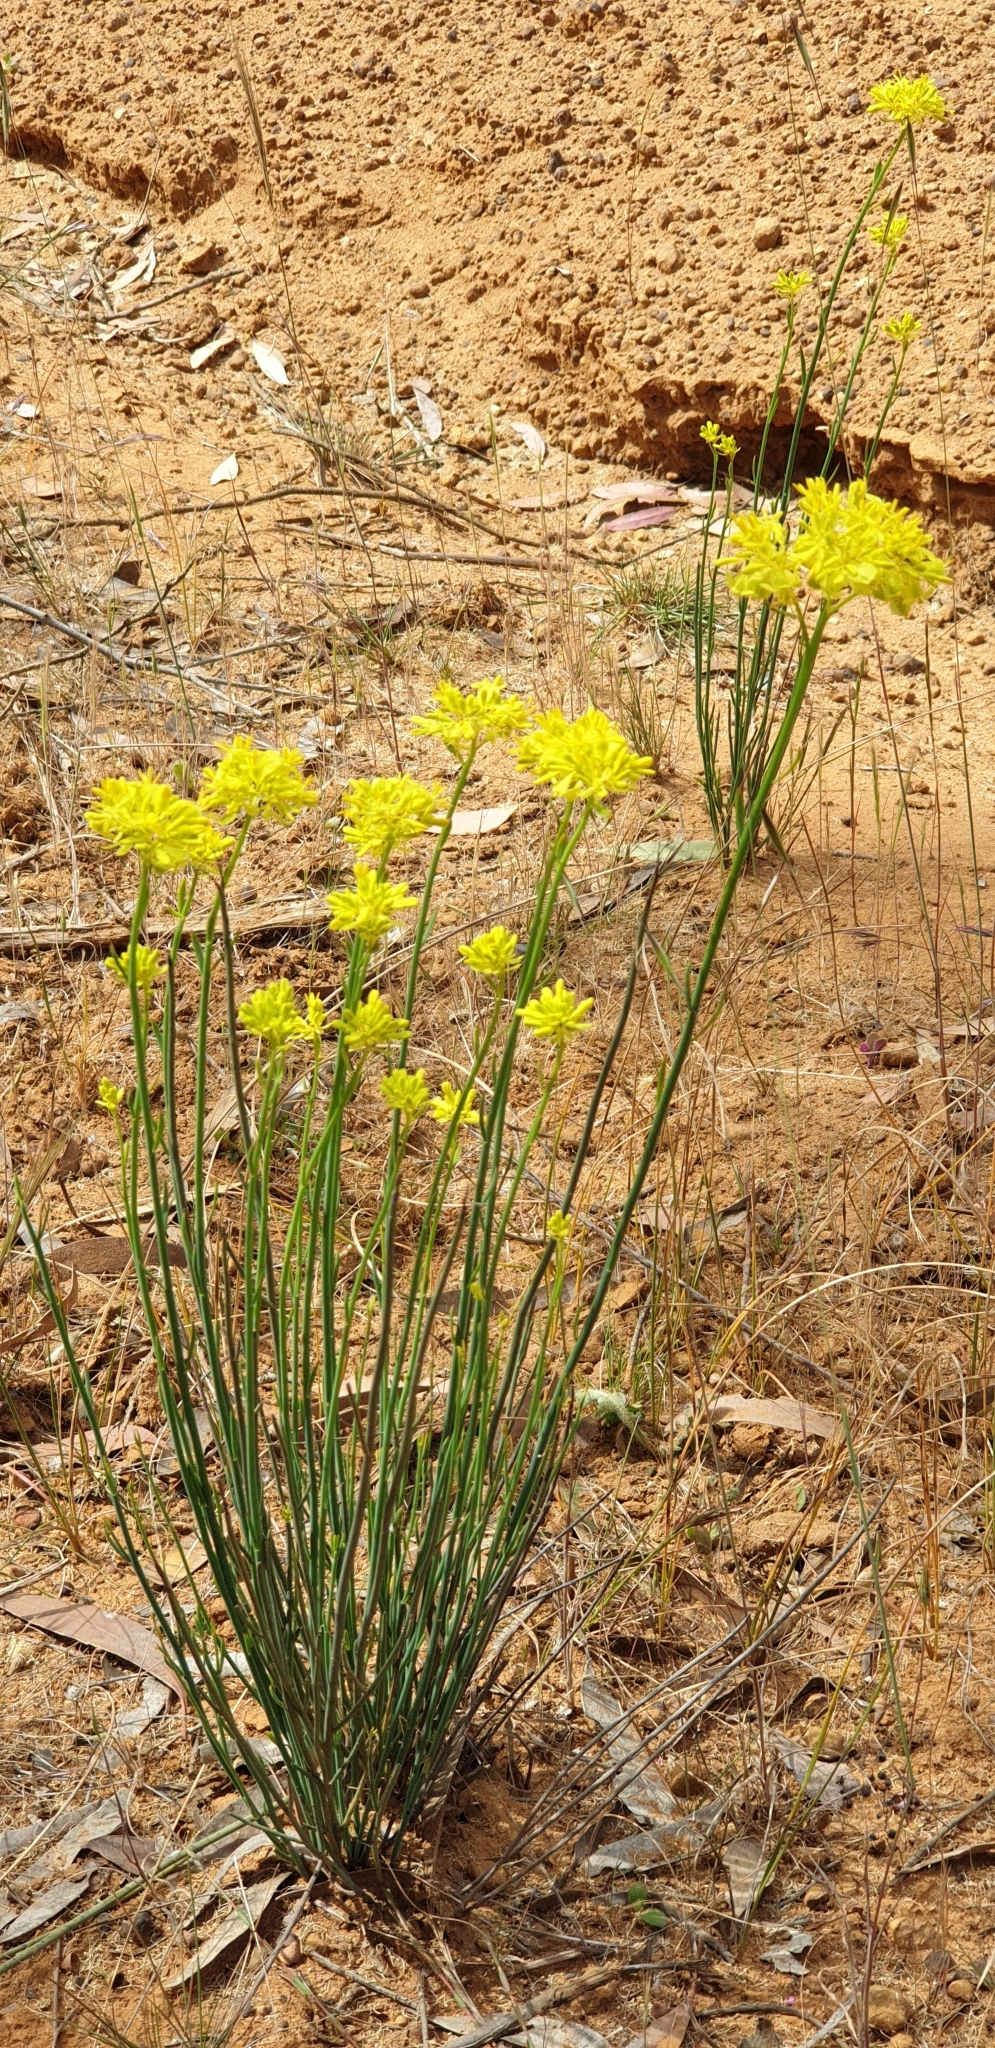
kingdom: Plantae
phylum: Tracheophyta
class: Magnoliopsida
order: Saxifragales
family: Haloragaceae
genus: Glischrocaryon
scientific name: Glischrocaryon behrii
